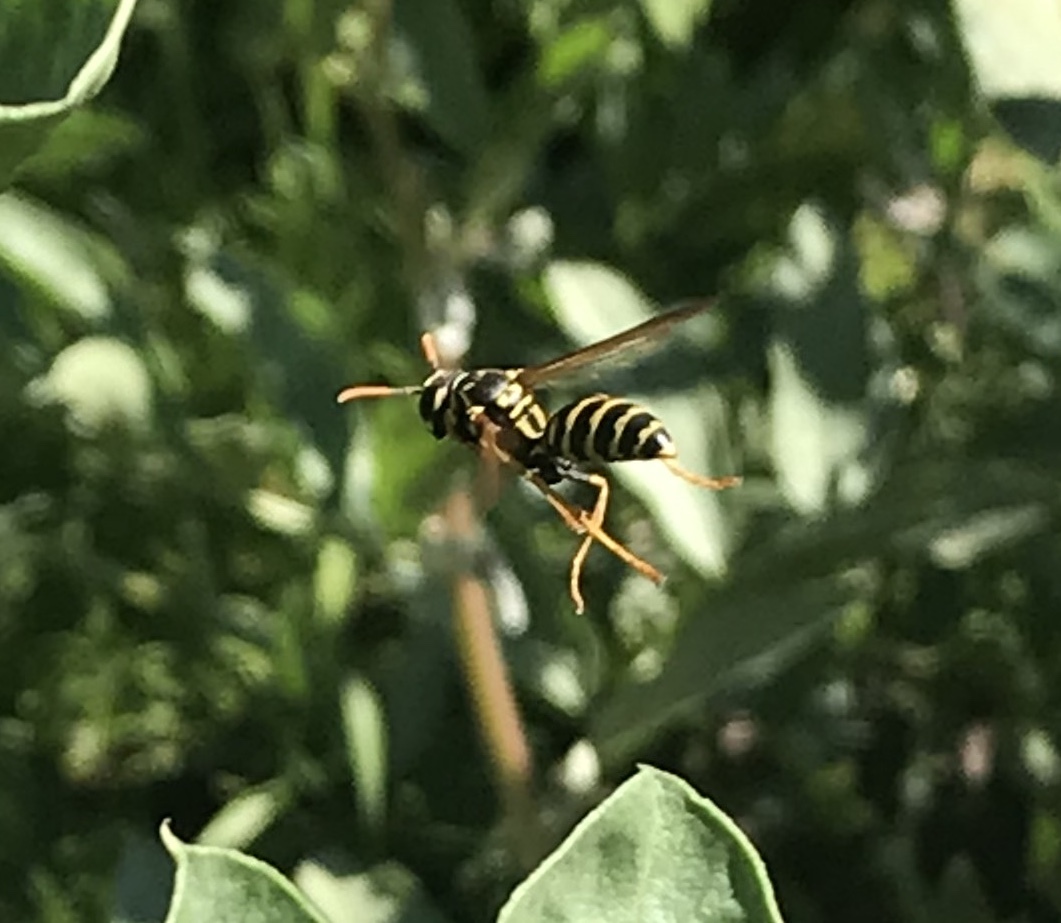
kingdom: Animalia
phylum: Arthropoda
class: Insecta
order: Hymenoptera
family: Eumenidae
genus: Polistes
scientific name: Polistes dominula
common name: Paper wasp
